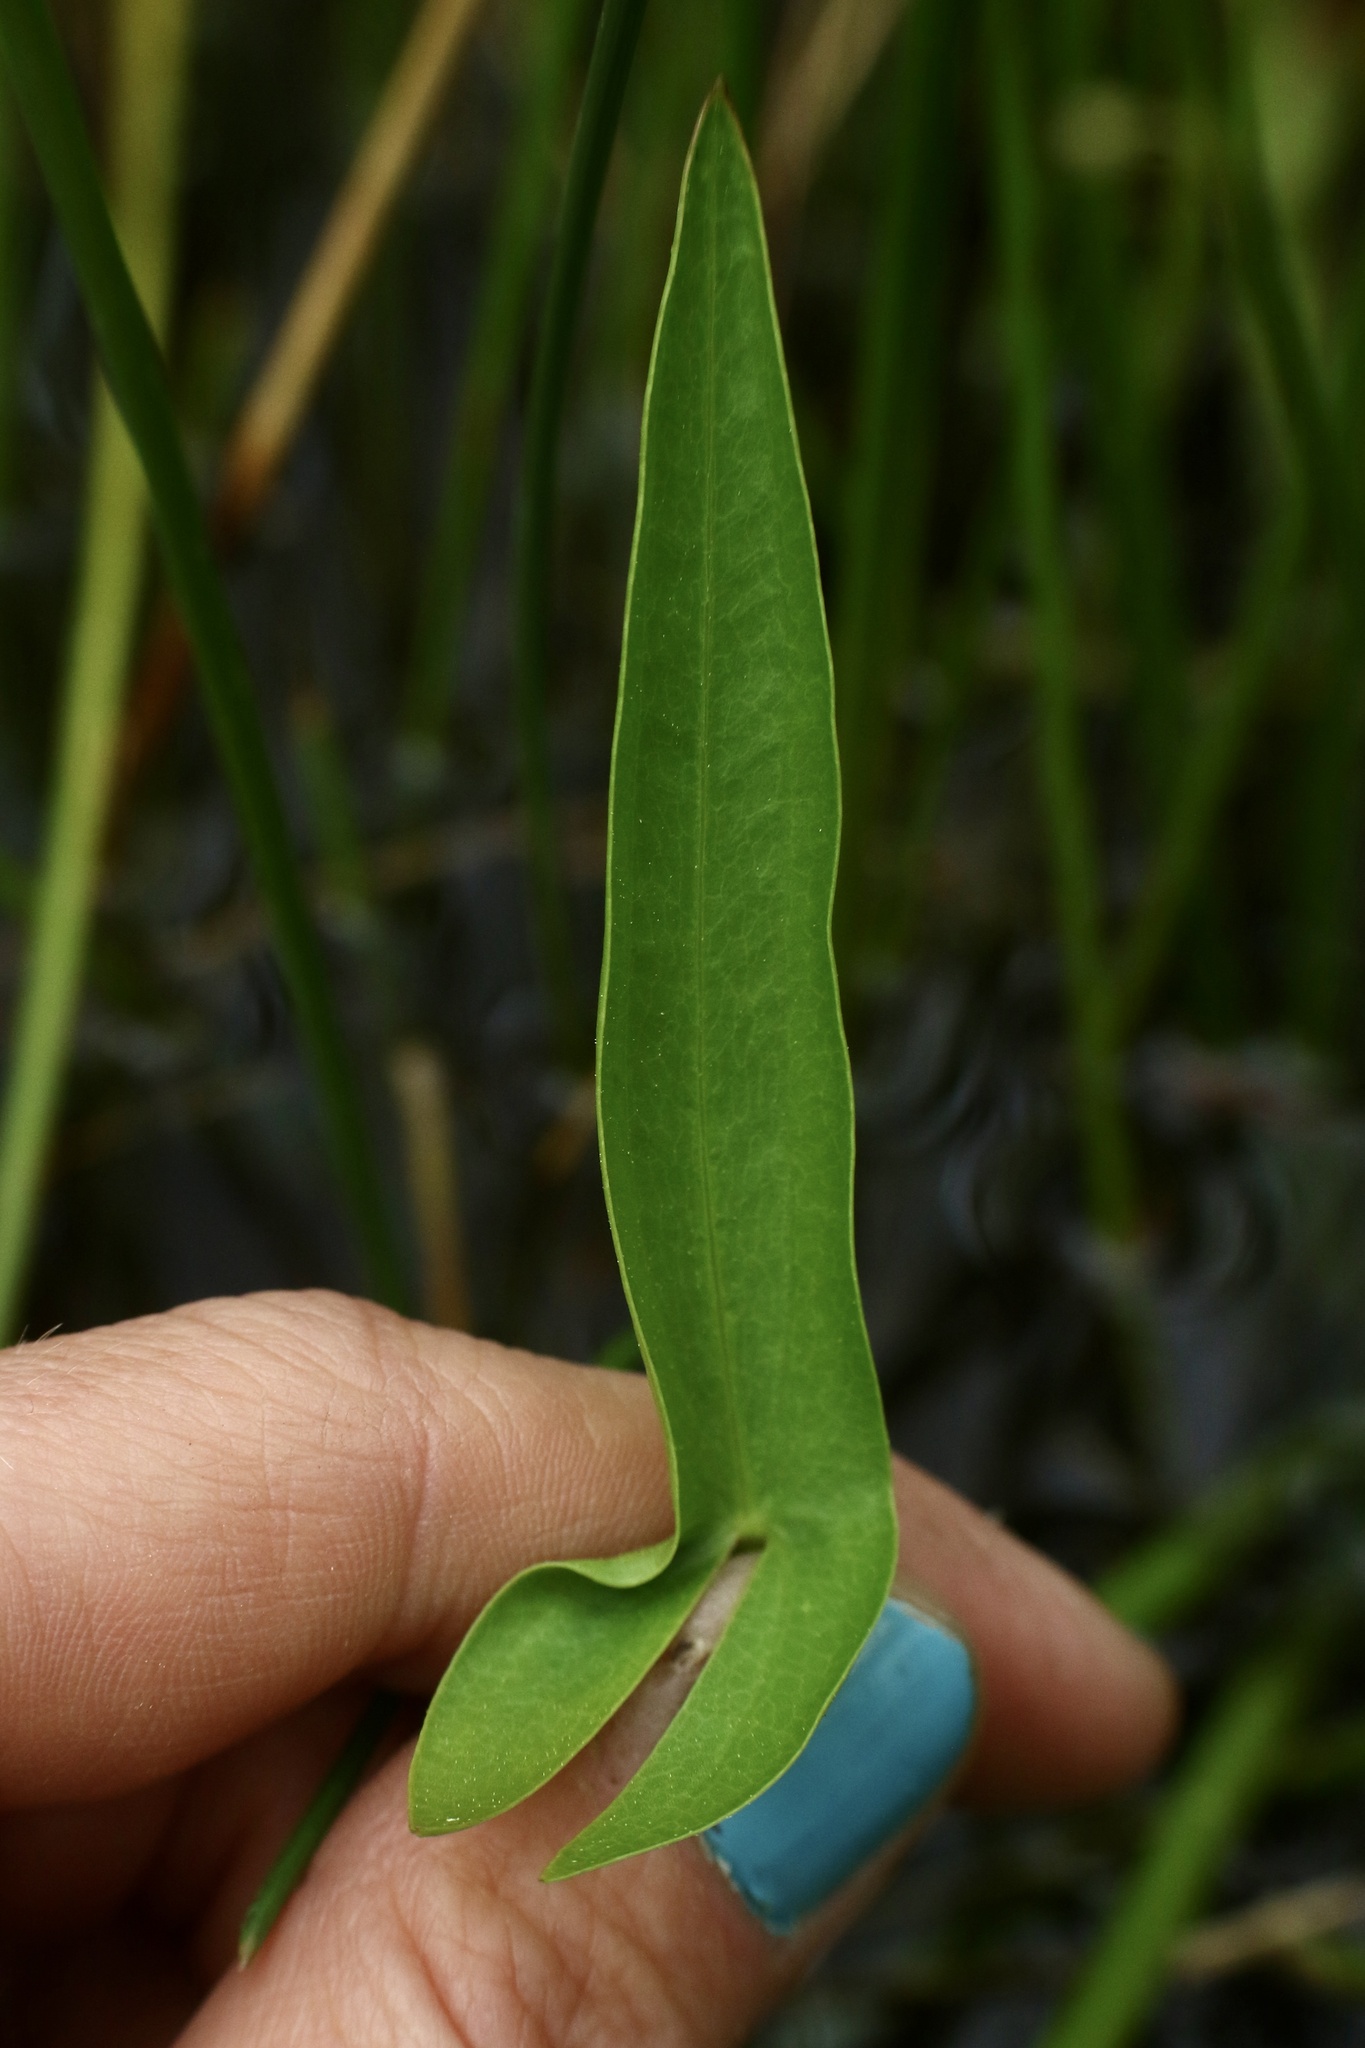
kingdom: Plantae
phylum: Tracheophyta
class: Liliopsida
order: Alismatales
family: Alismataceae
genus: Sagittaria
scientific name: Sagittaria cuneata
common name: Northern arrowhead
